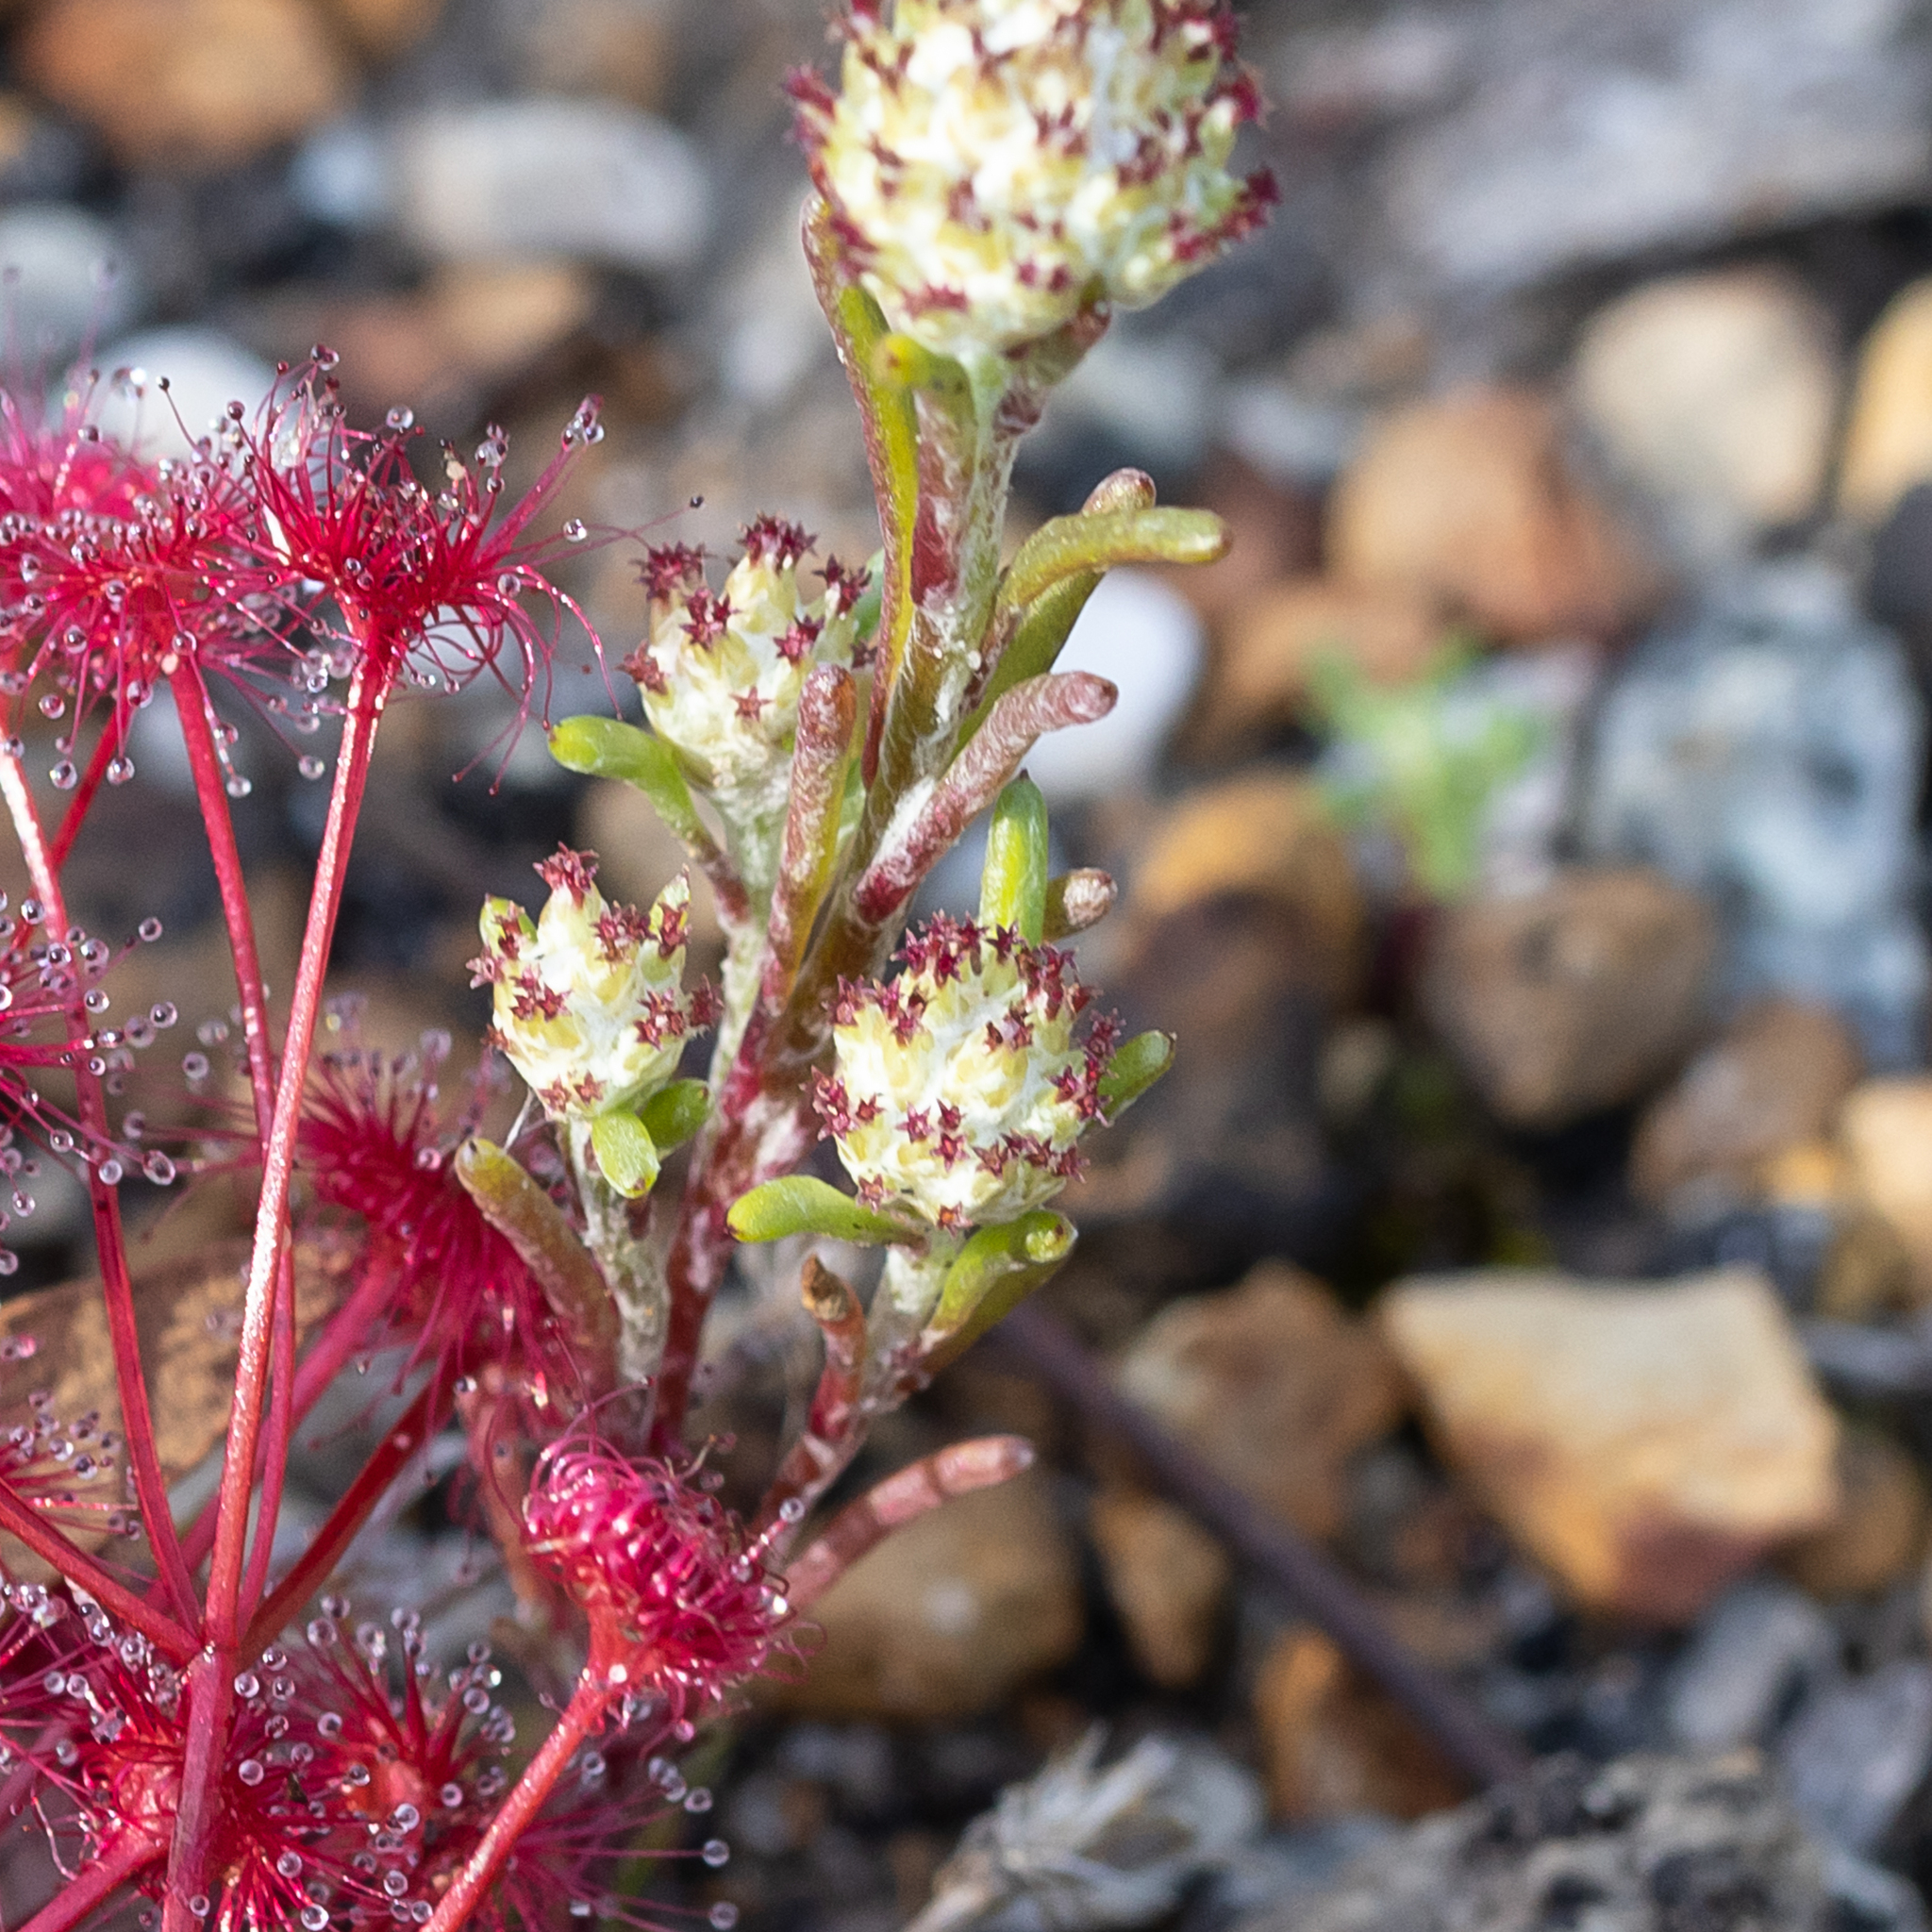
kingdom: Plantae
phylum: Tracheophyta
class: Magnoliopsida
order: Asterales
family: Asteraceae
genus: Blennospora
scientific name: Blennospora drummondii
